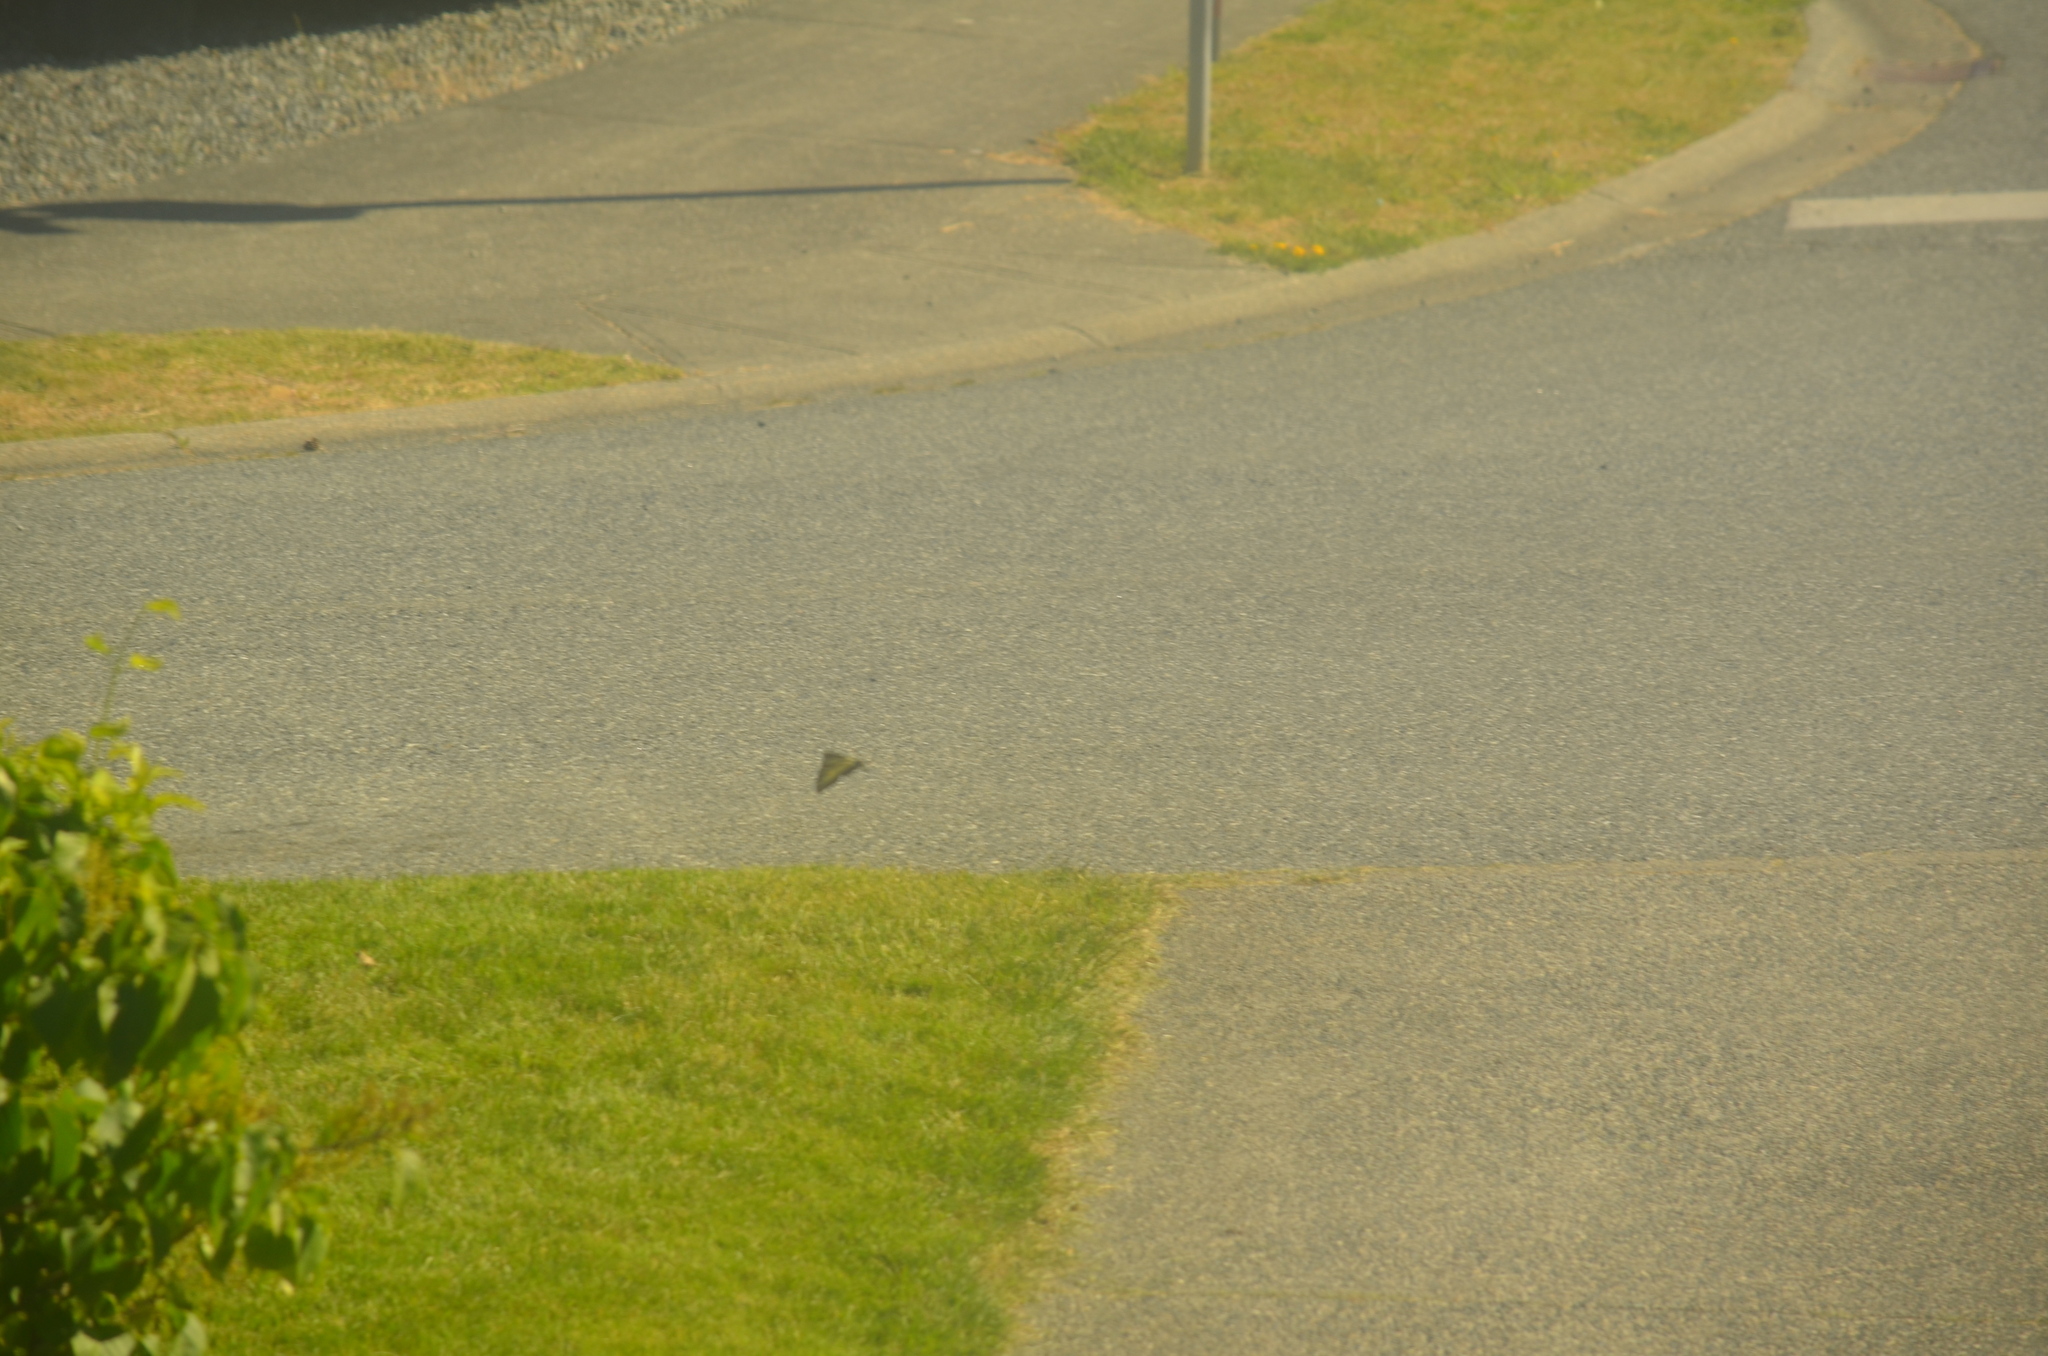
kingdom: Animalia
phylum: Arthropoda
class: Insecta
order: Lepidoptera
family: Papilionidae
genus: Papilio
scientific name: Papilio rutulus
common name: Western tiger swallowtail
